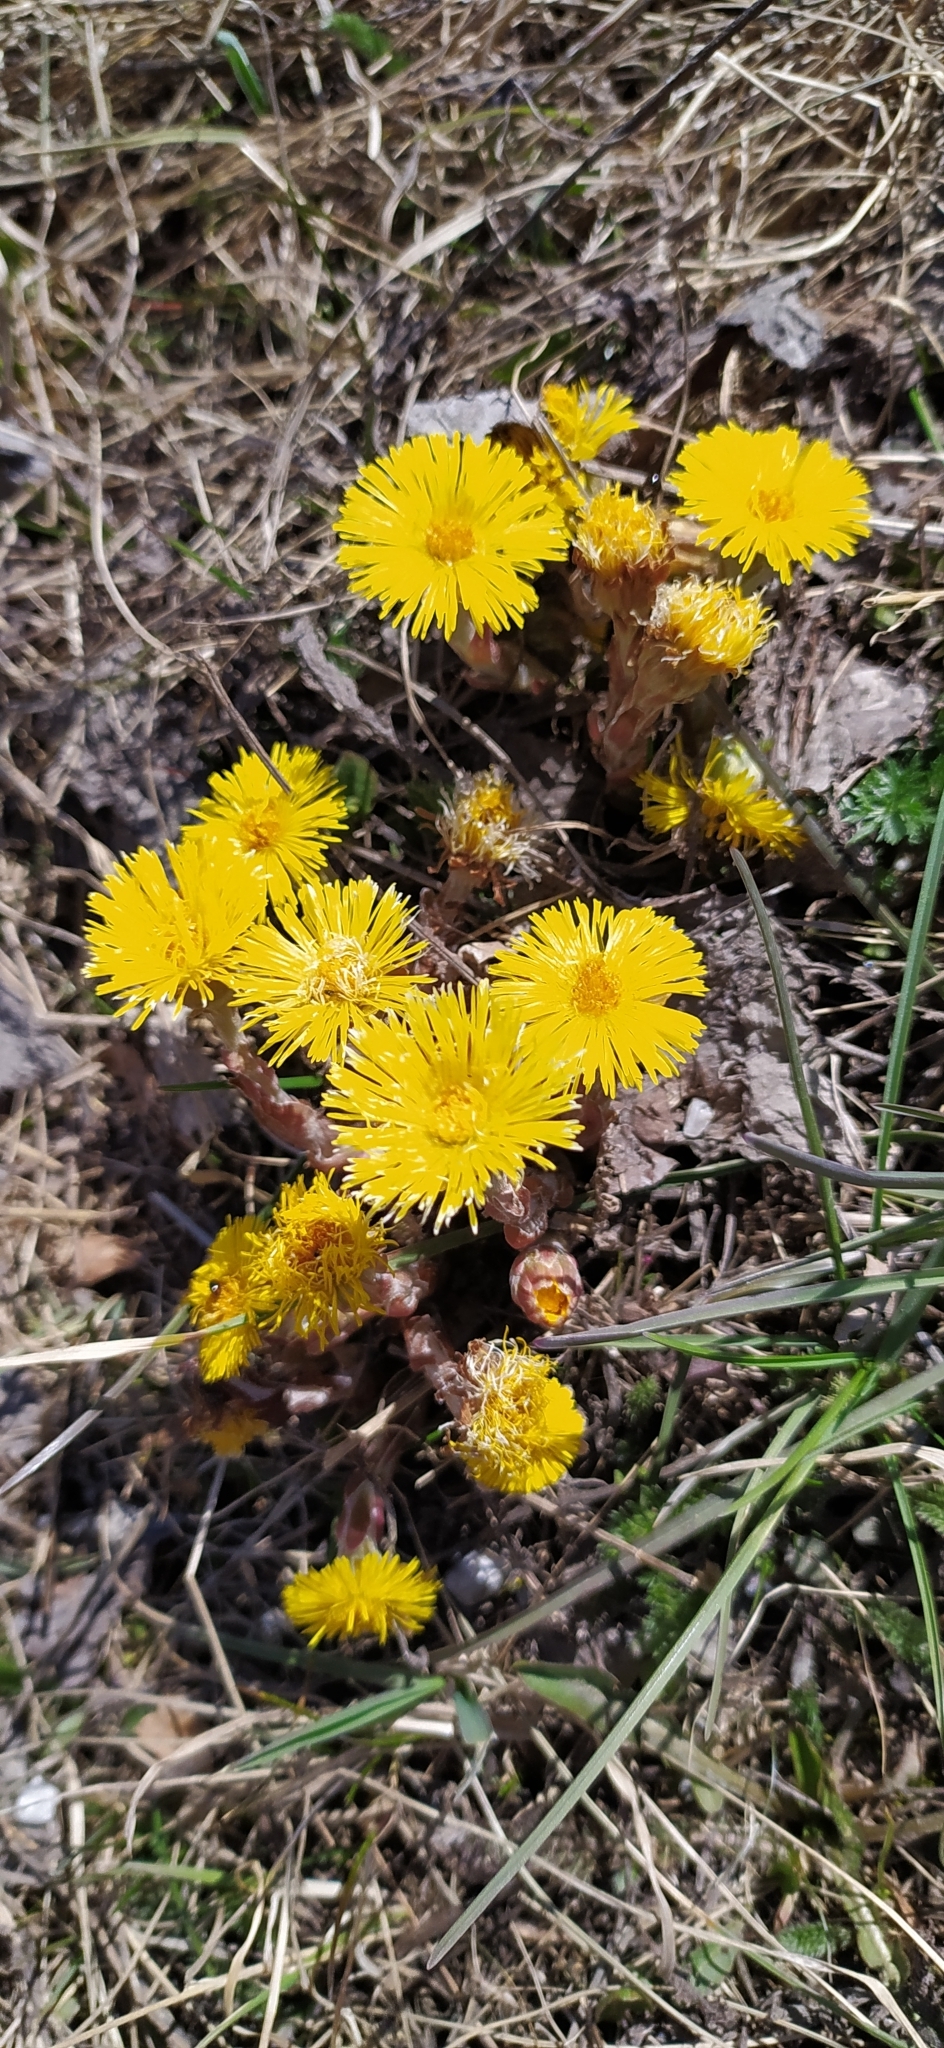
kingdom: Plantae
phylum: Tracheophyta
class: Magnoliopsida
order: Asterales
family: Asteraceae
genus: Tussilago
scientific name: Tussilago farfara
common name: Coltsfoot
